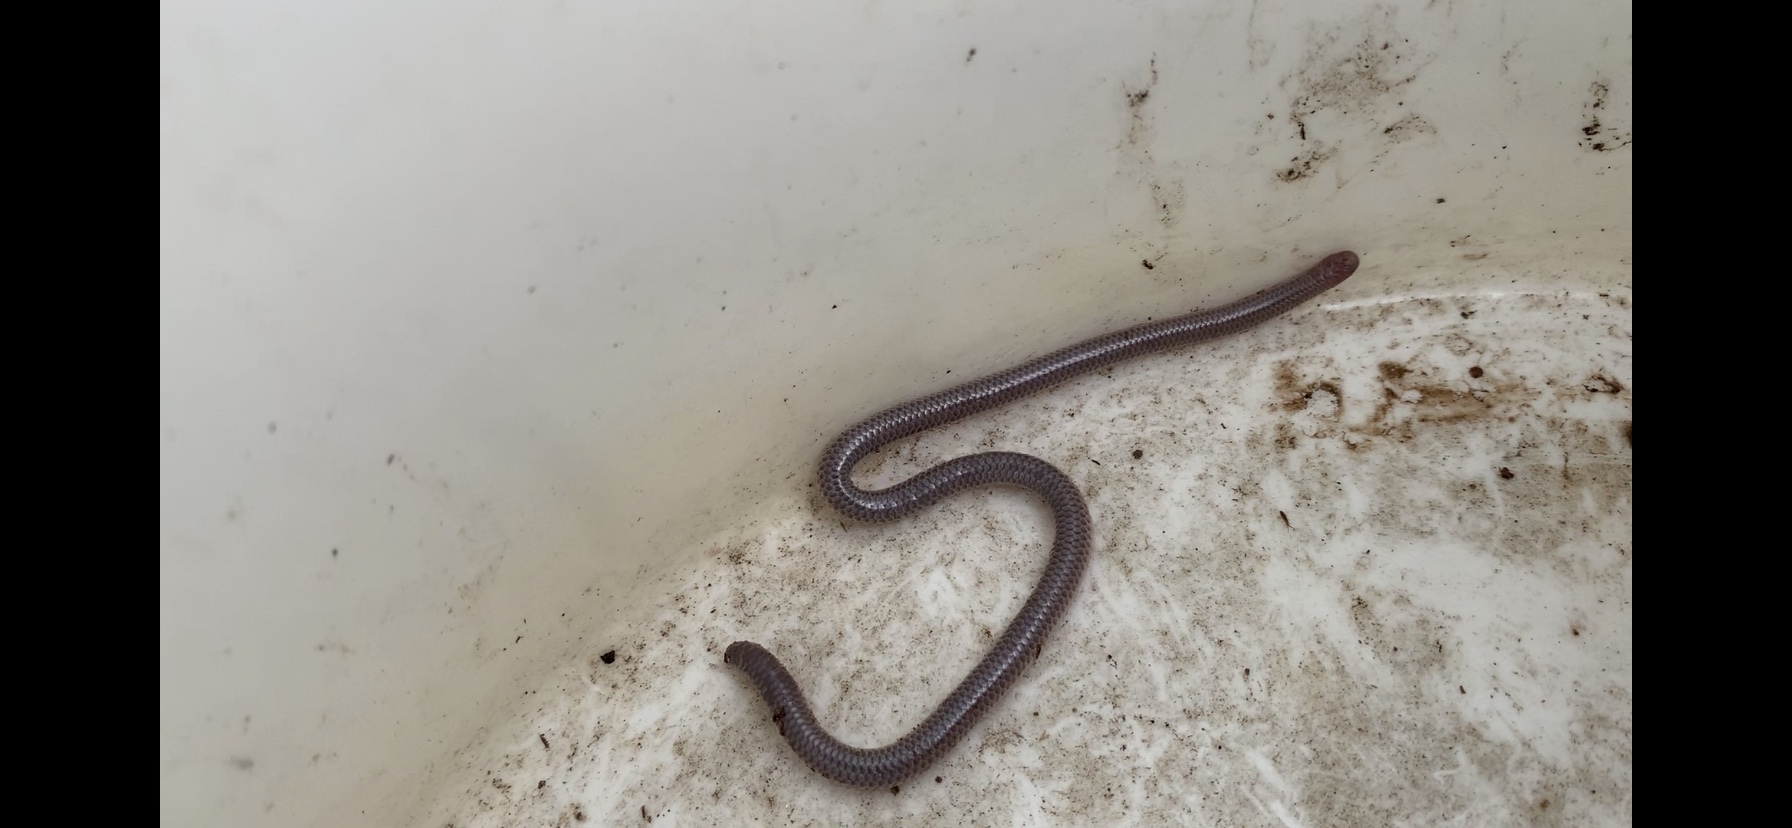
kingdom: Animalia
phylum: Chordata
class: Squamata
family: Leptotyphlopidae
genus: Rena
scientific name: Rena dulcis
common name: Texas blind snake
